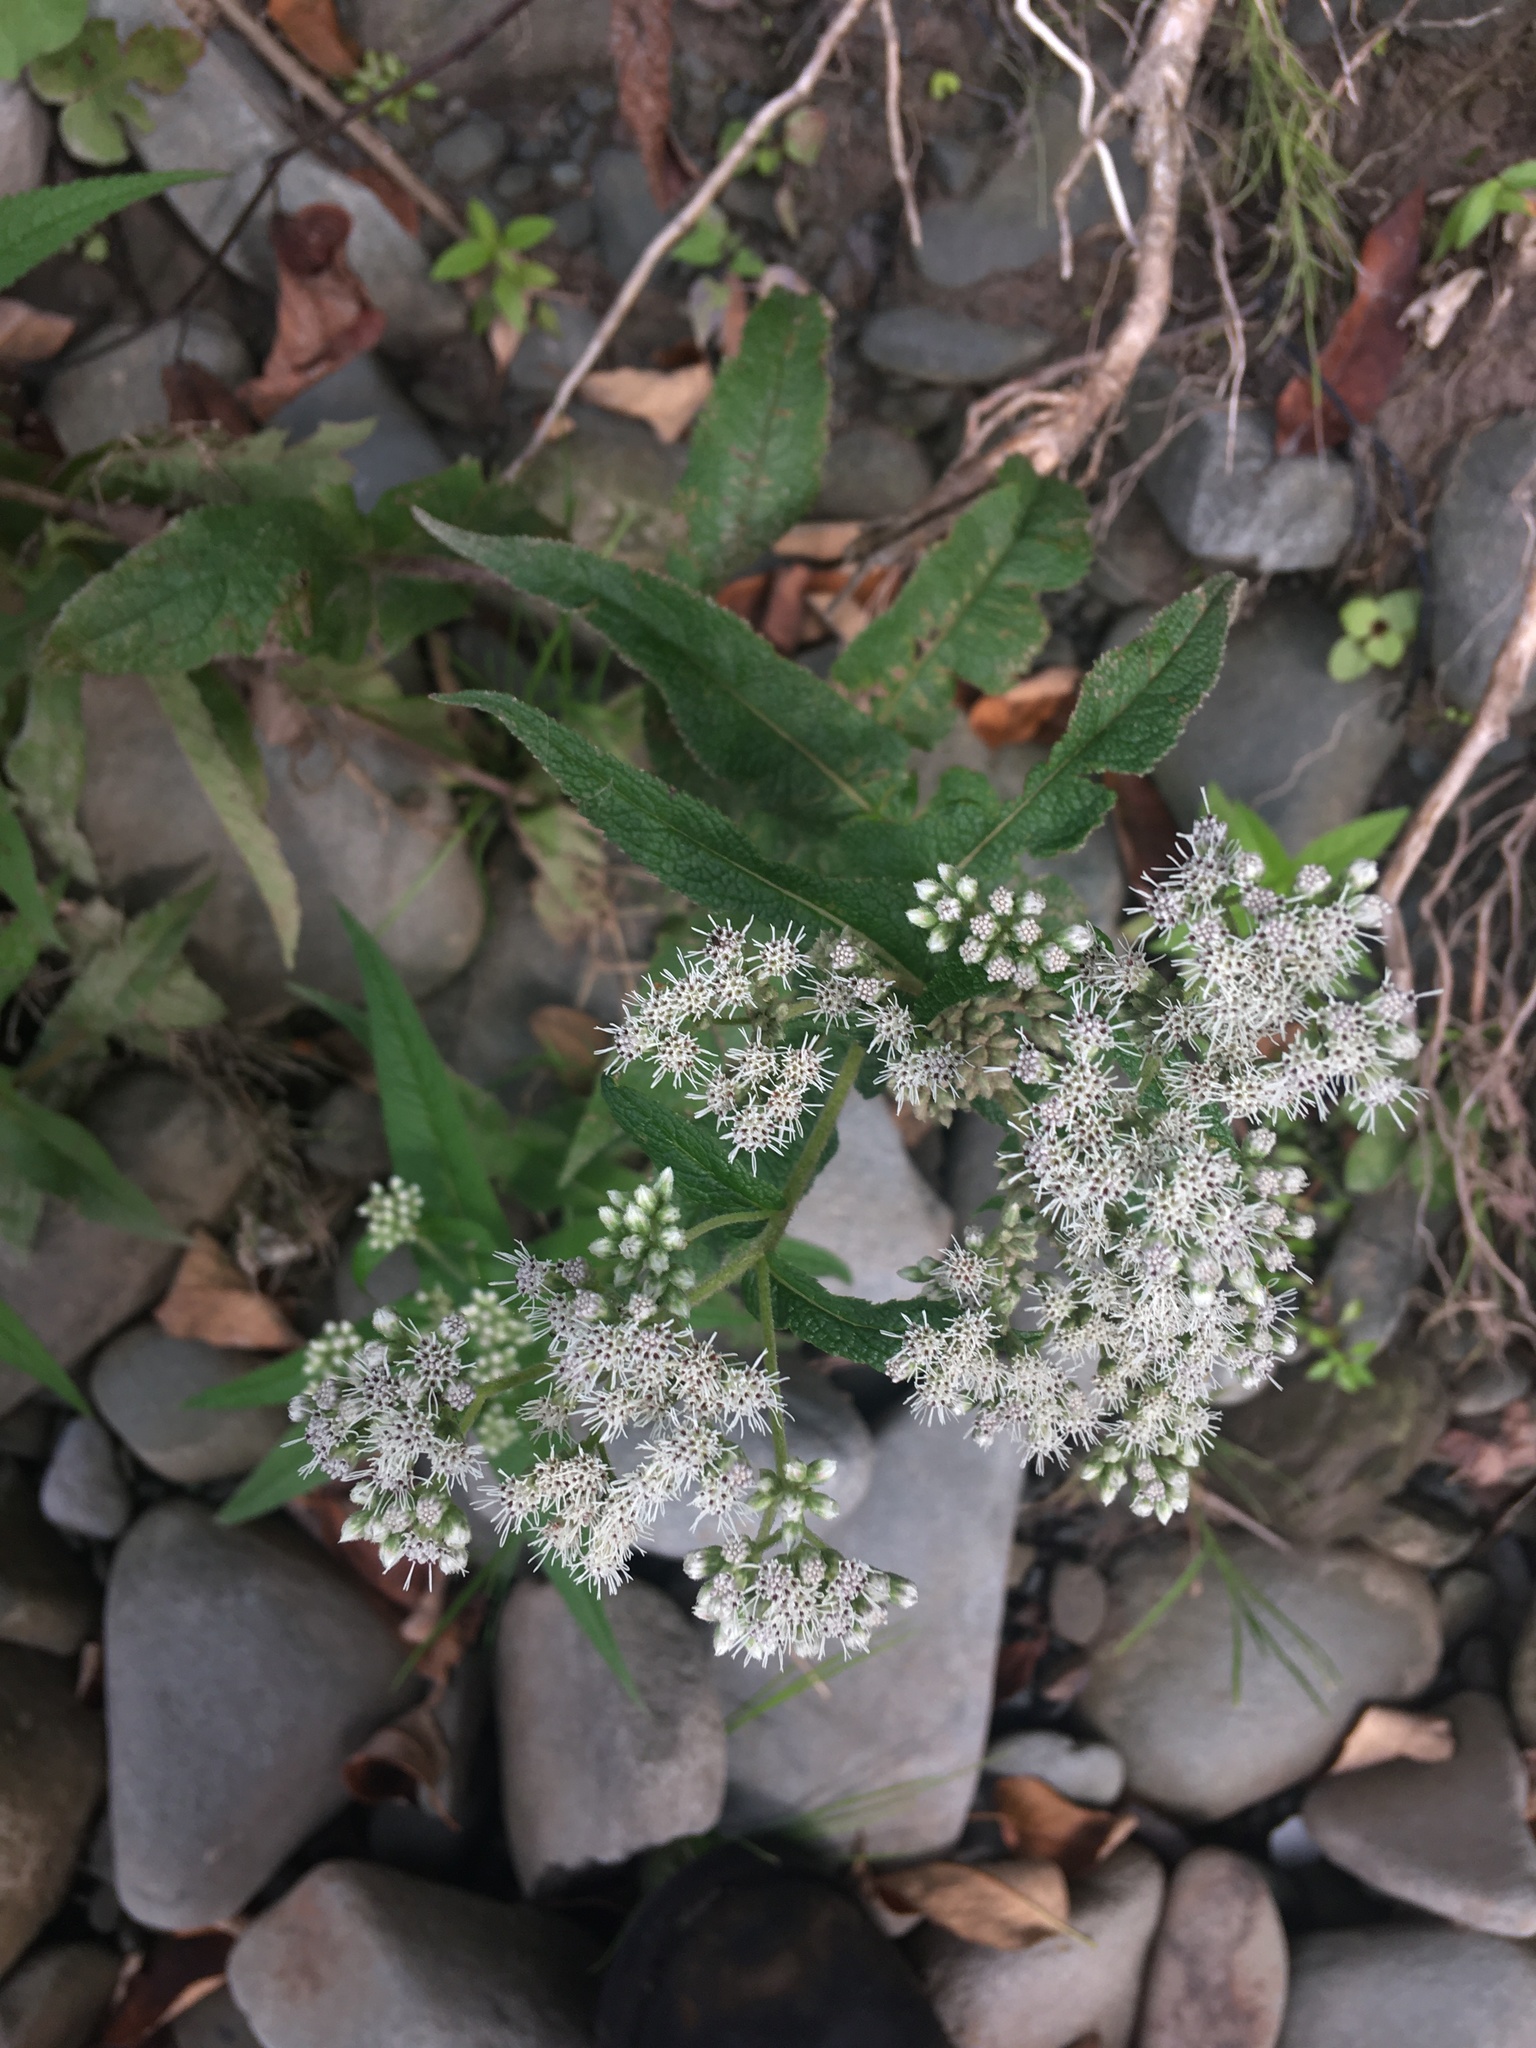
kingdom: Plantae
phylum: Tracheophyta
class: Magnoliopsida
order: Asterales
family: Asteraceae
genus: Eupatorium
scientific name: Eupatorium perfoliatum
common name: Boneset
